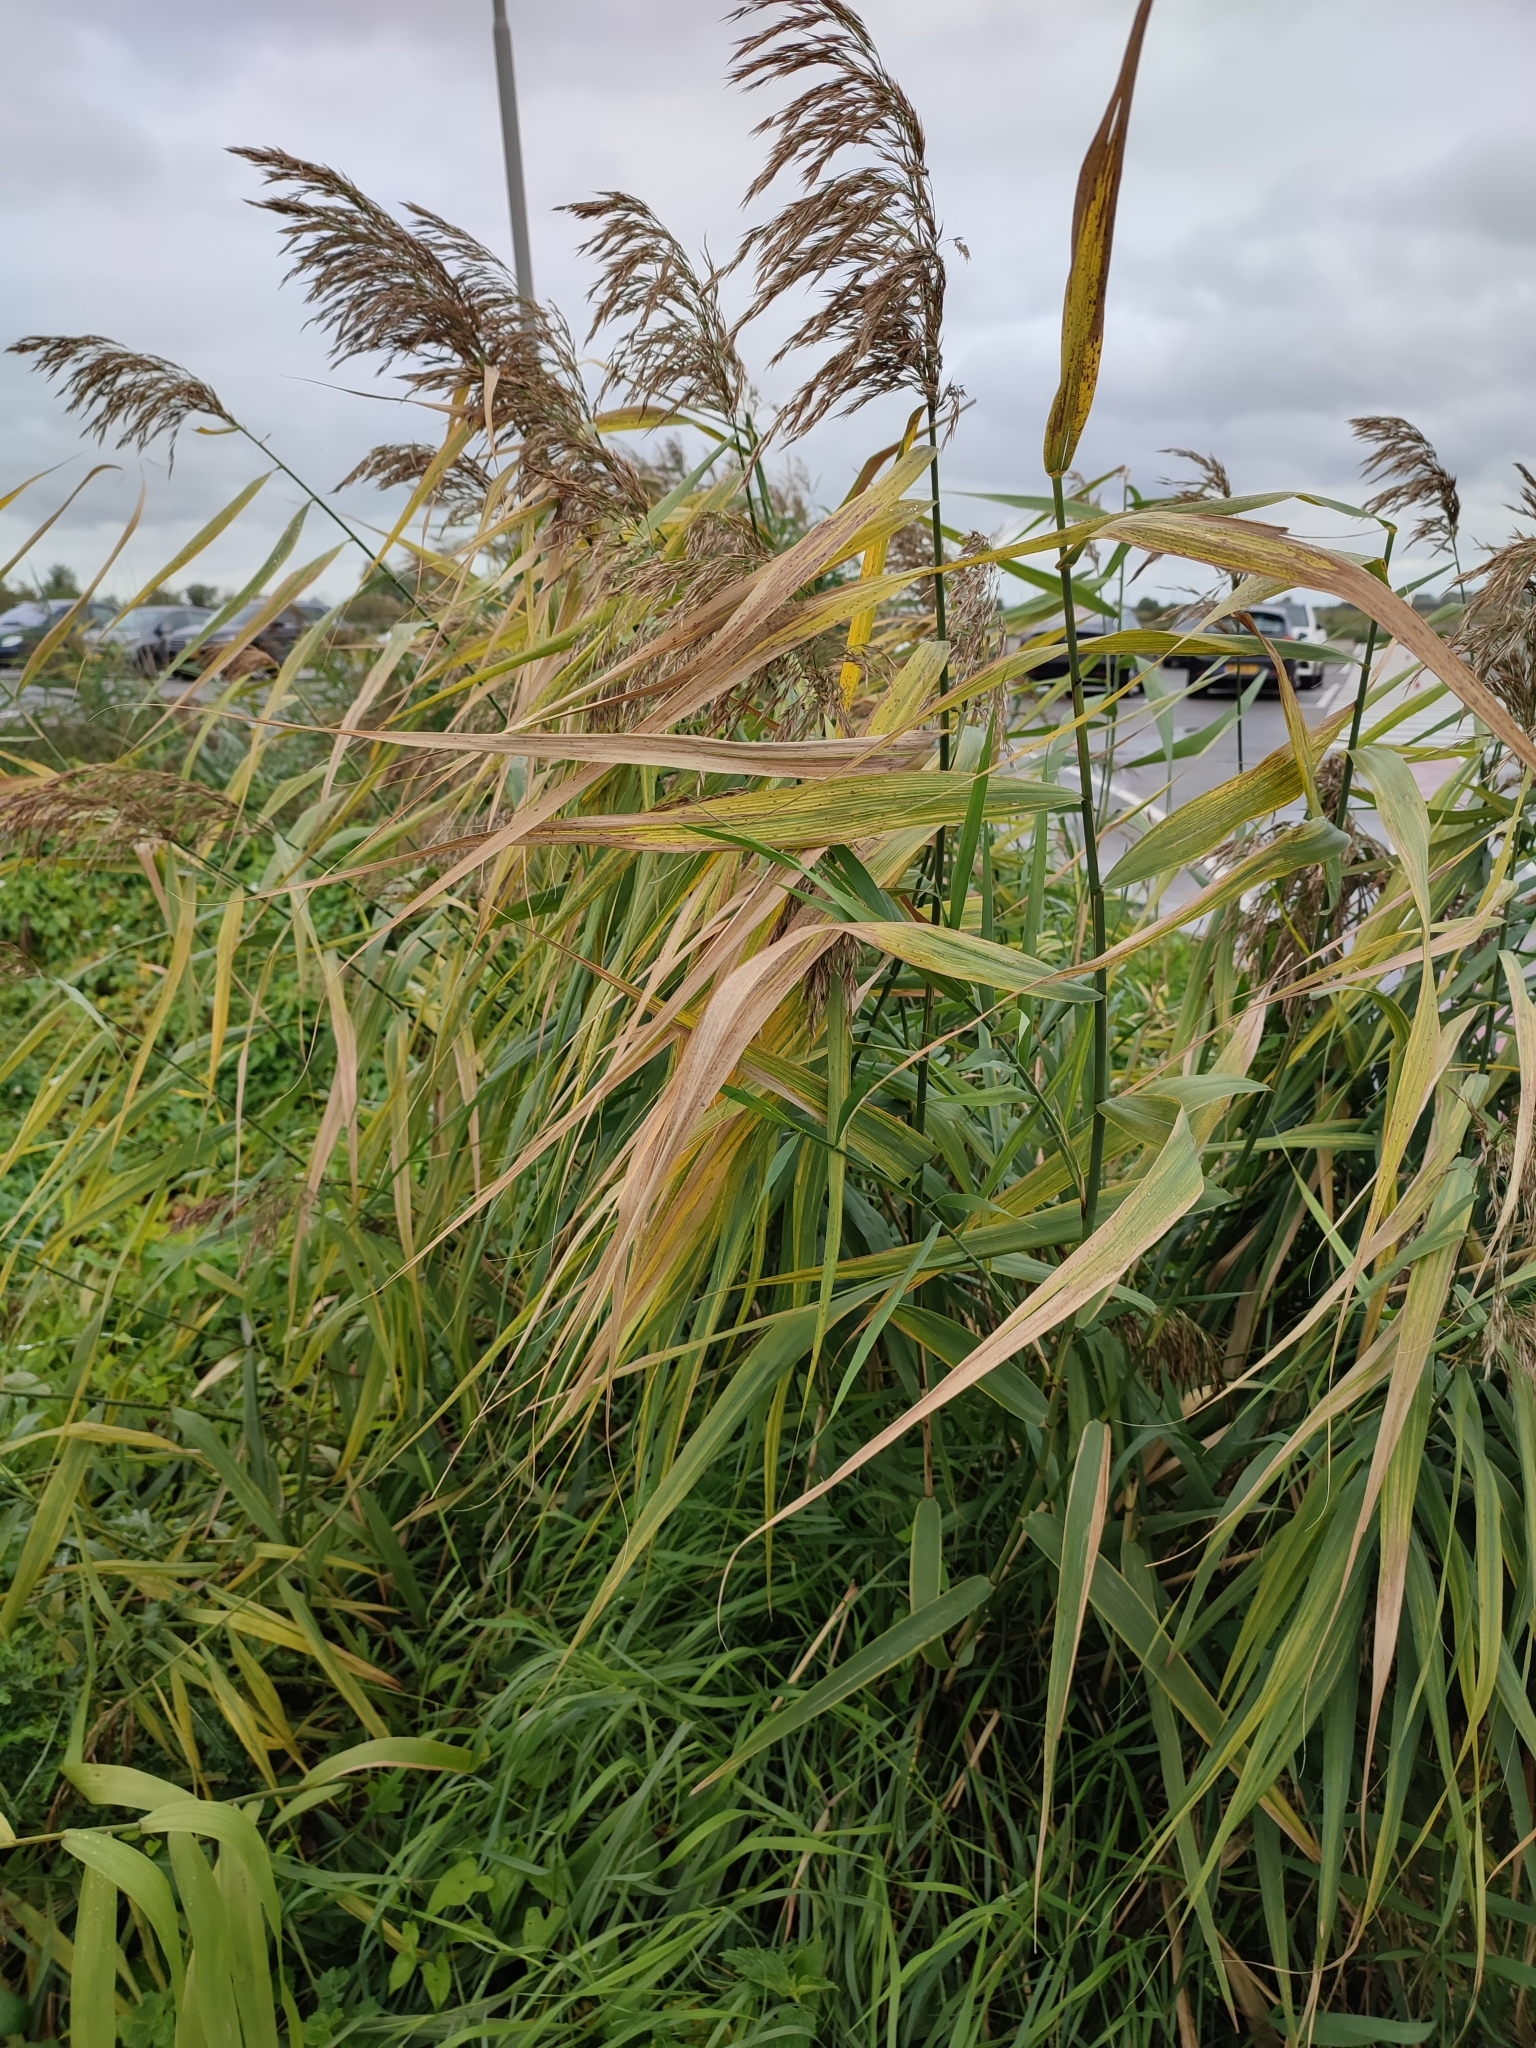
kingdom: Plantae
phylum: Tracheophyta
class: Liliopsida
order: Poales
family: Poaceae
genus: Phragmites
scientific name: Phragmites australis
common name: Common reed
